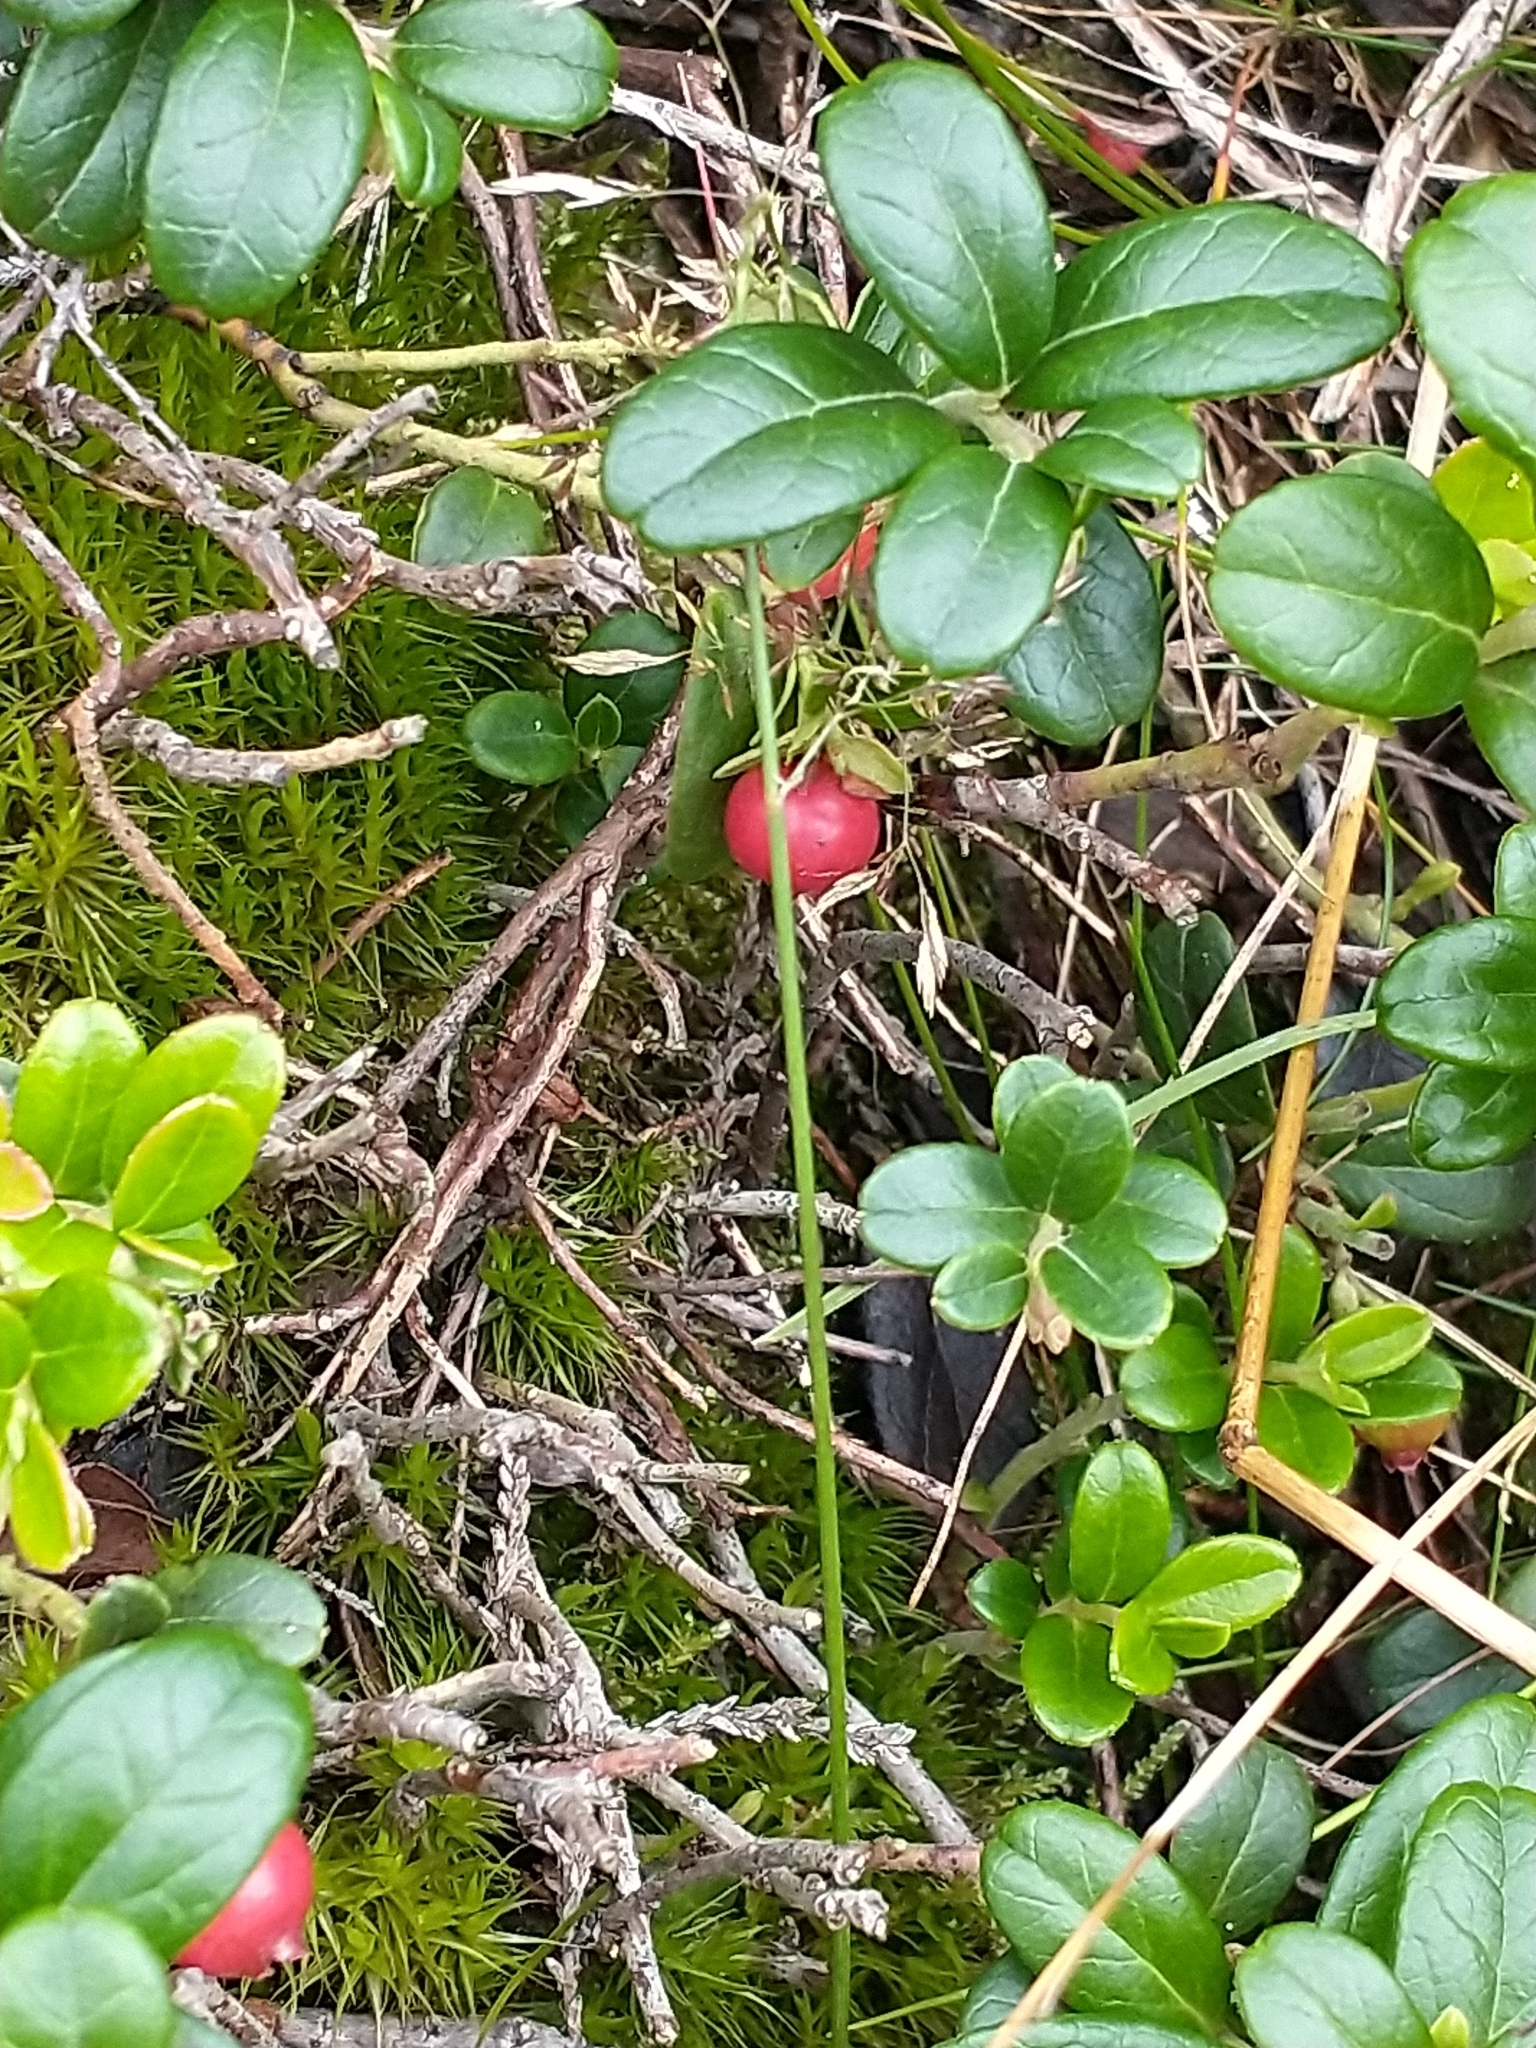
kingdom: Plantae
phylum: Tracheophyta
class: Magnoliopsida
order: Ericales
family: Ericaceae
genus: Vaccinium
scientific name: Vaccinium vitis-idaea
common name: Cowberry
